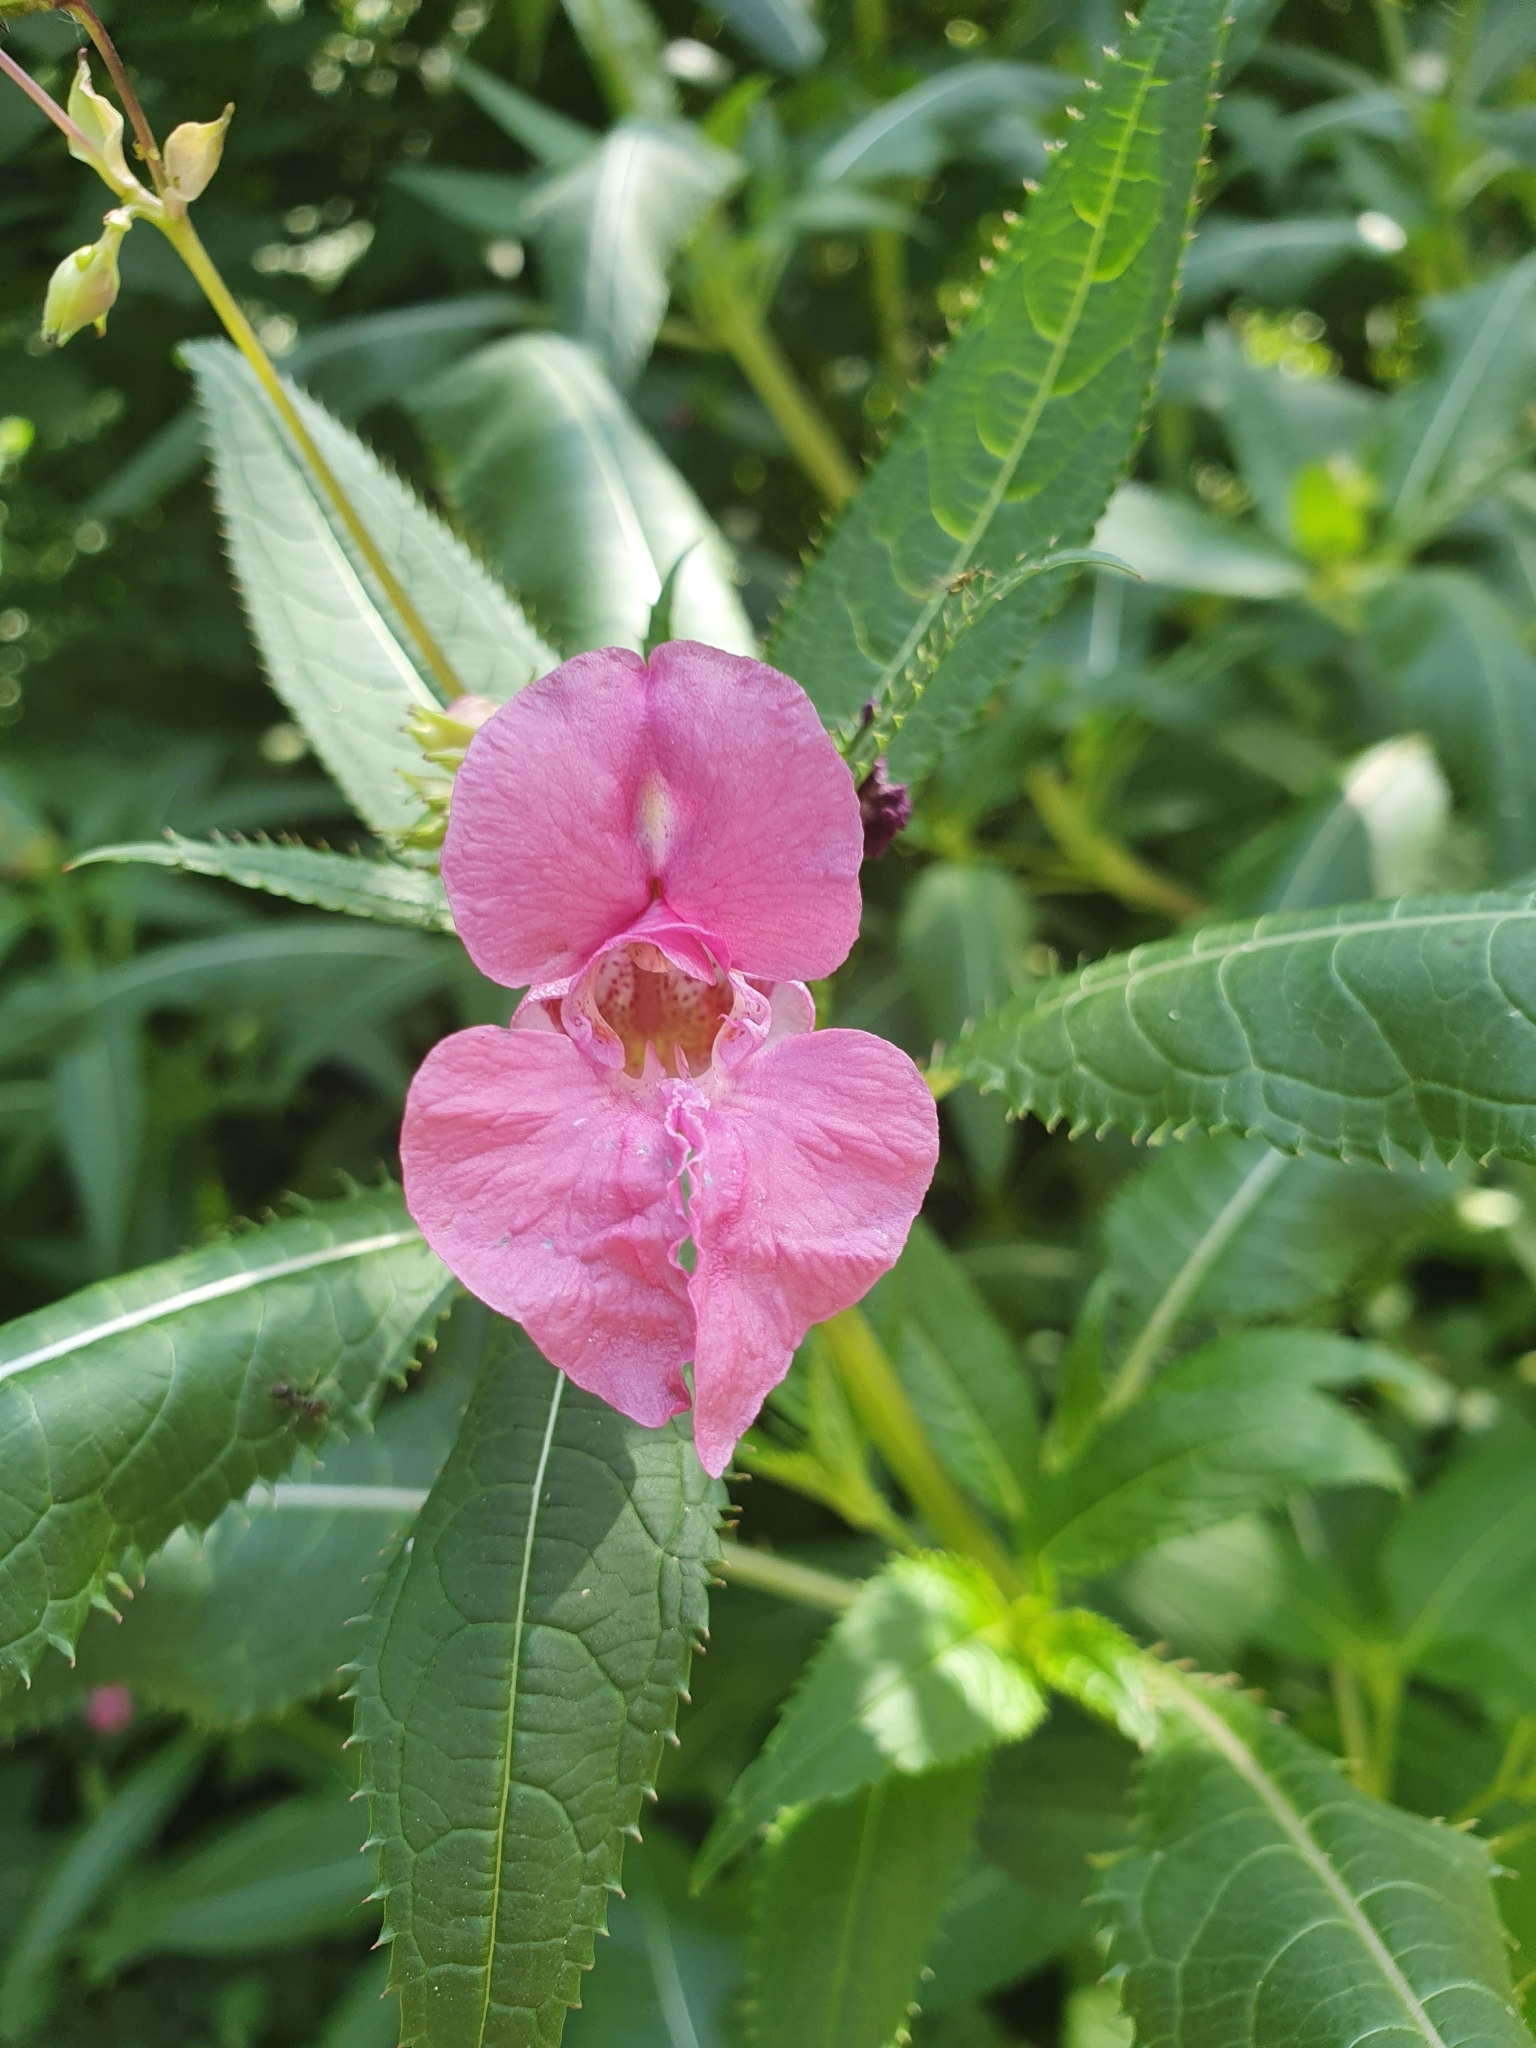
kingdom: Plantae
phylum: Tracheophyta
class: Magnoliopsida
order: Ericales
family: Balsaminaceae
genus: Impatiens
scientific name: Impatiens glandulifera
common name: Himalayan balsam
